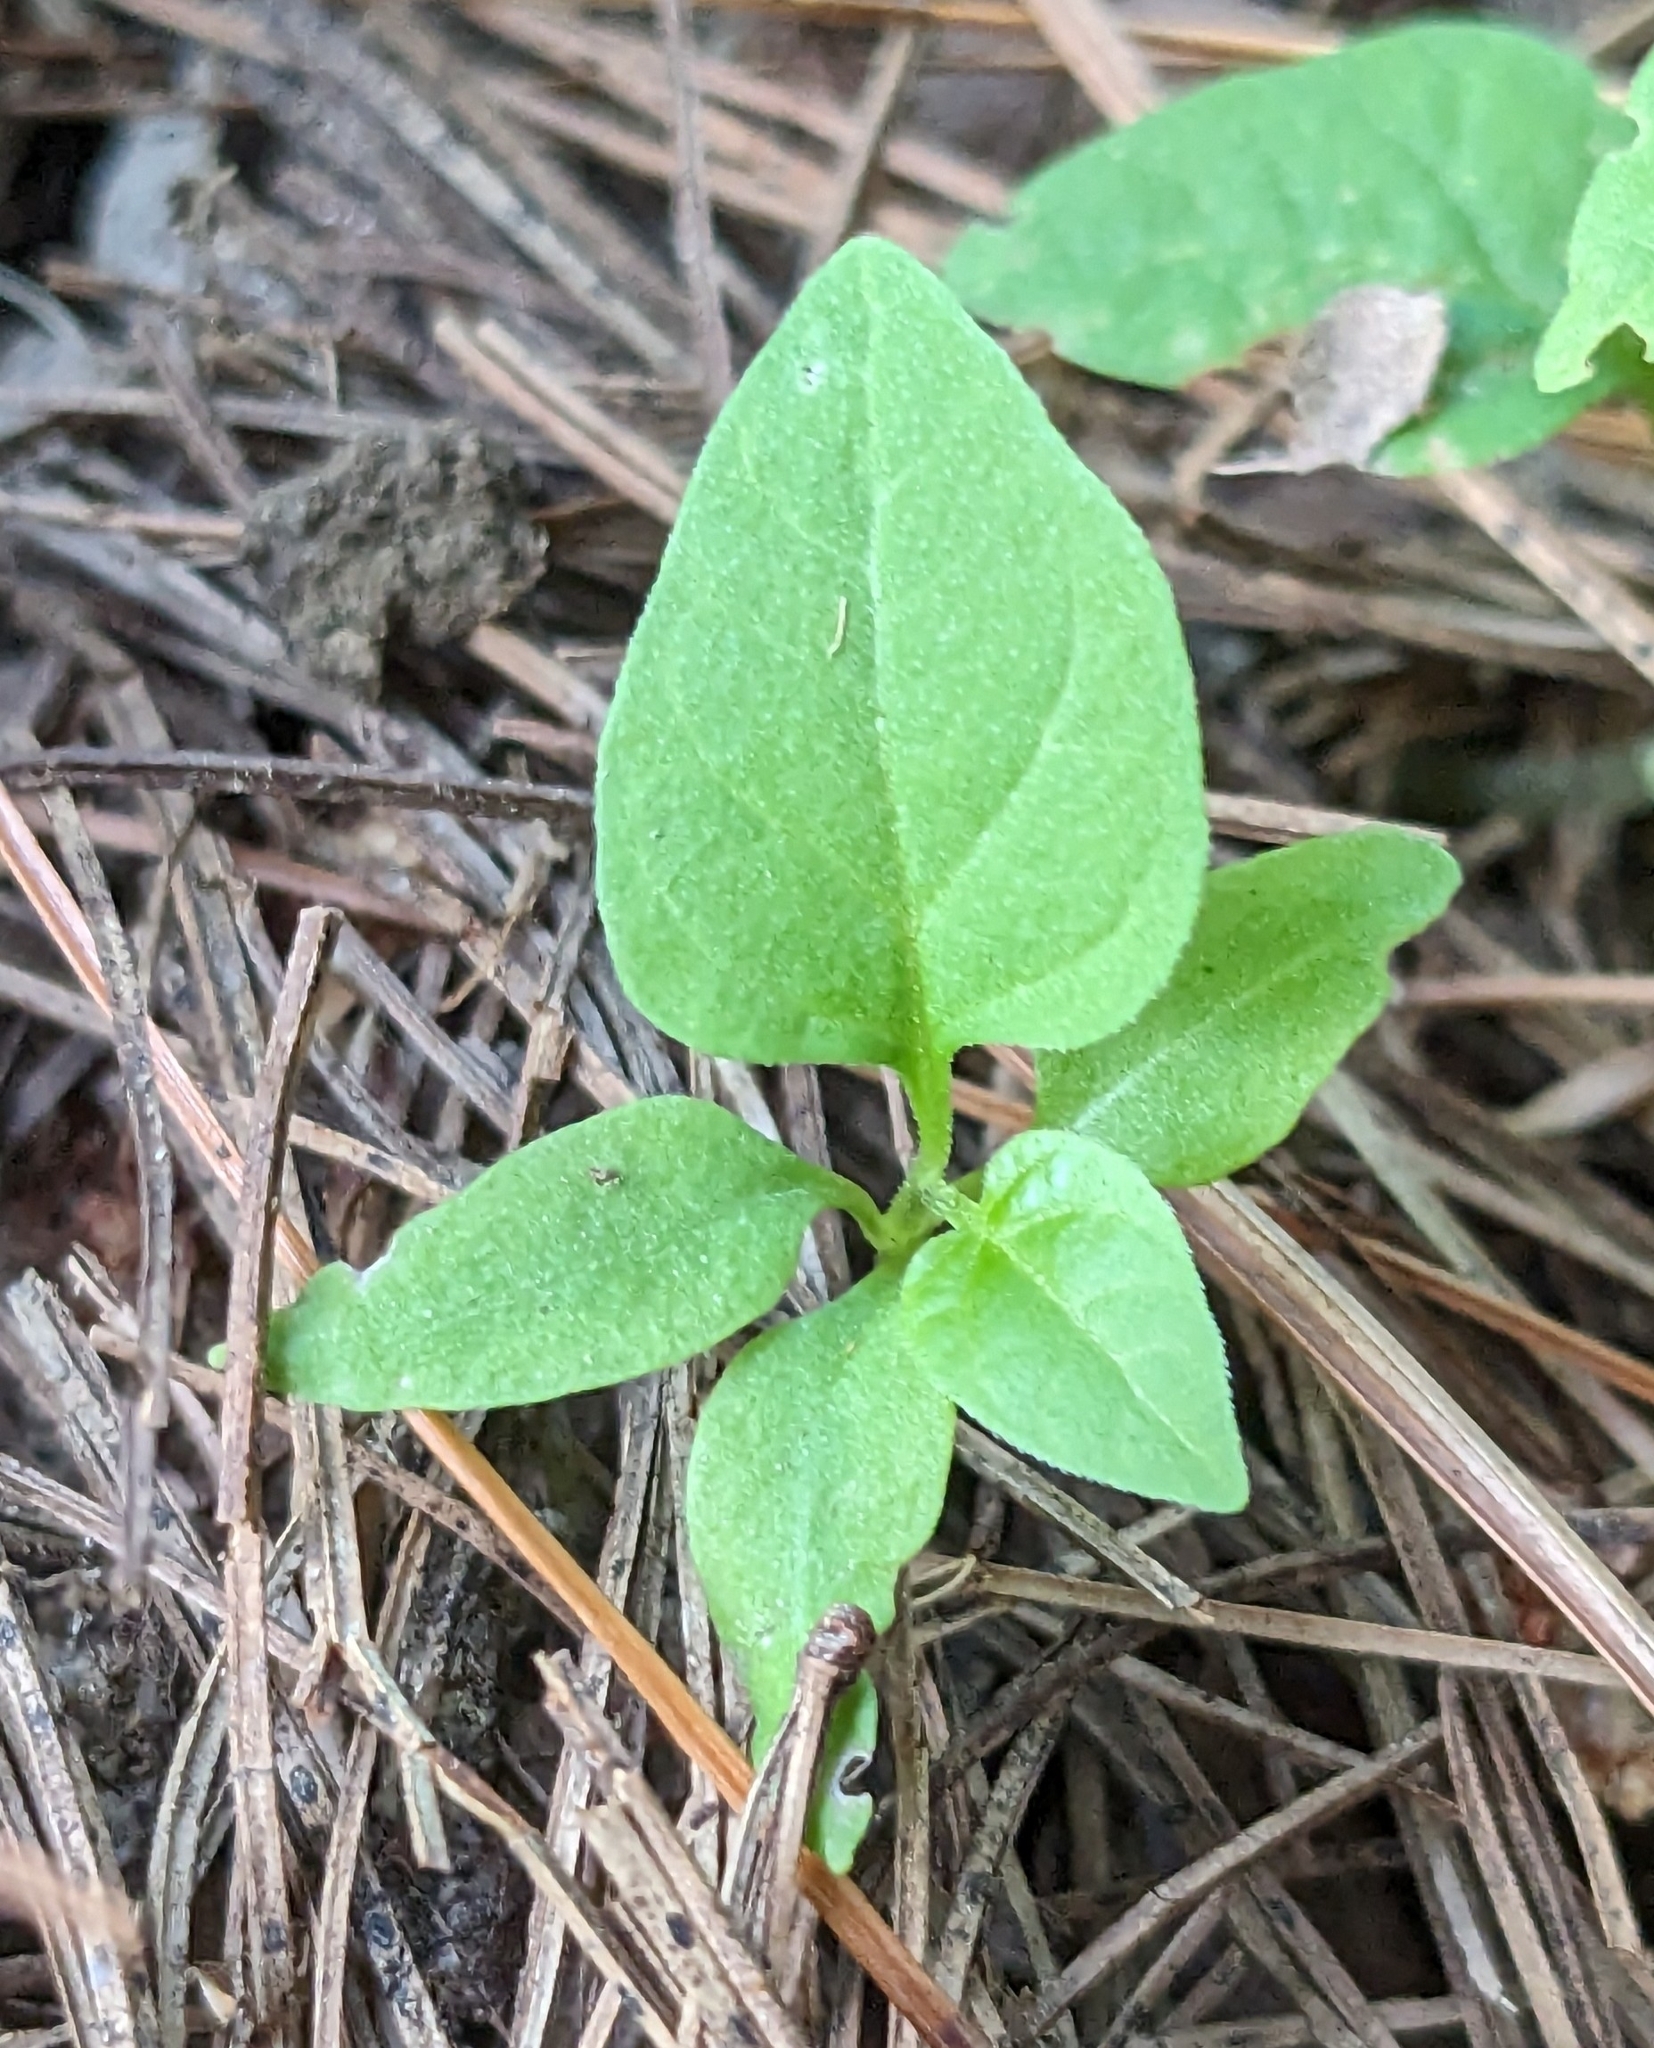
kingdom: Plantae
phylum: Tracheophyta
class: Magnoliopsida
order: Solanales
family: Solanaceae
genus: Solanum
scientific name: Solanum dulcamara
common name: Climbing nightshade
